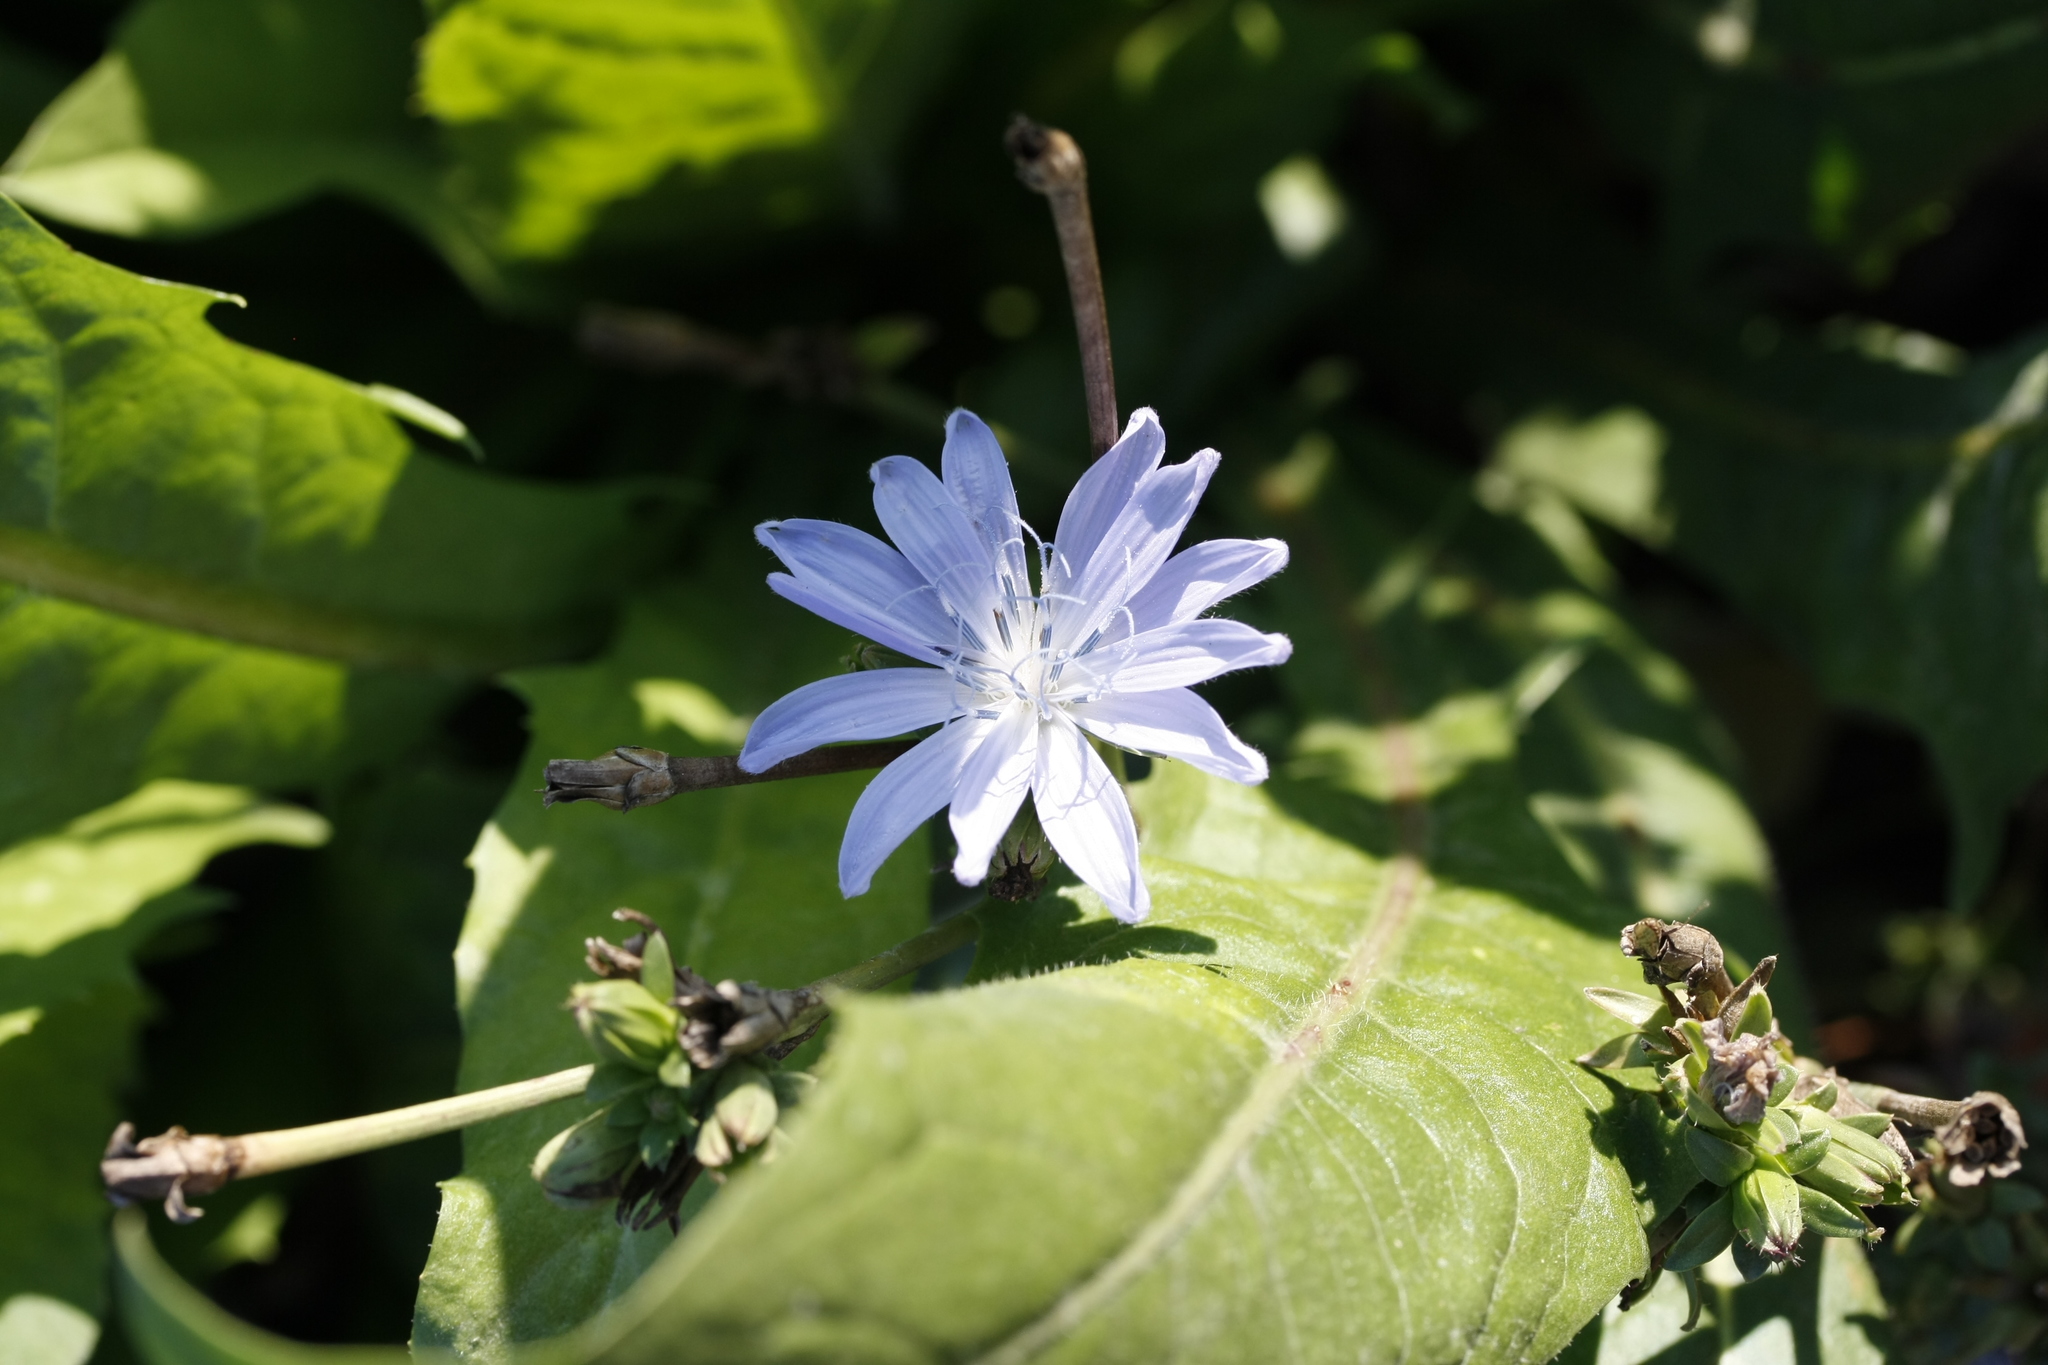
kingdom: Plantae
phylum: Tracheophyta
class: Magnoliopsida
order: Asterales
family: Asteraceae
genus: Cichorium
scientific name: Cichorium intybus
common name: Chicory
